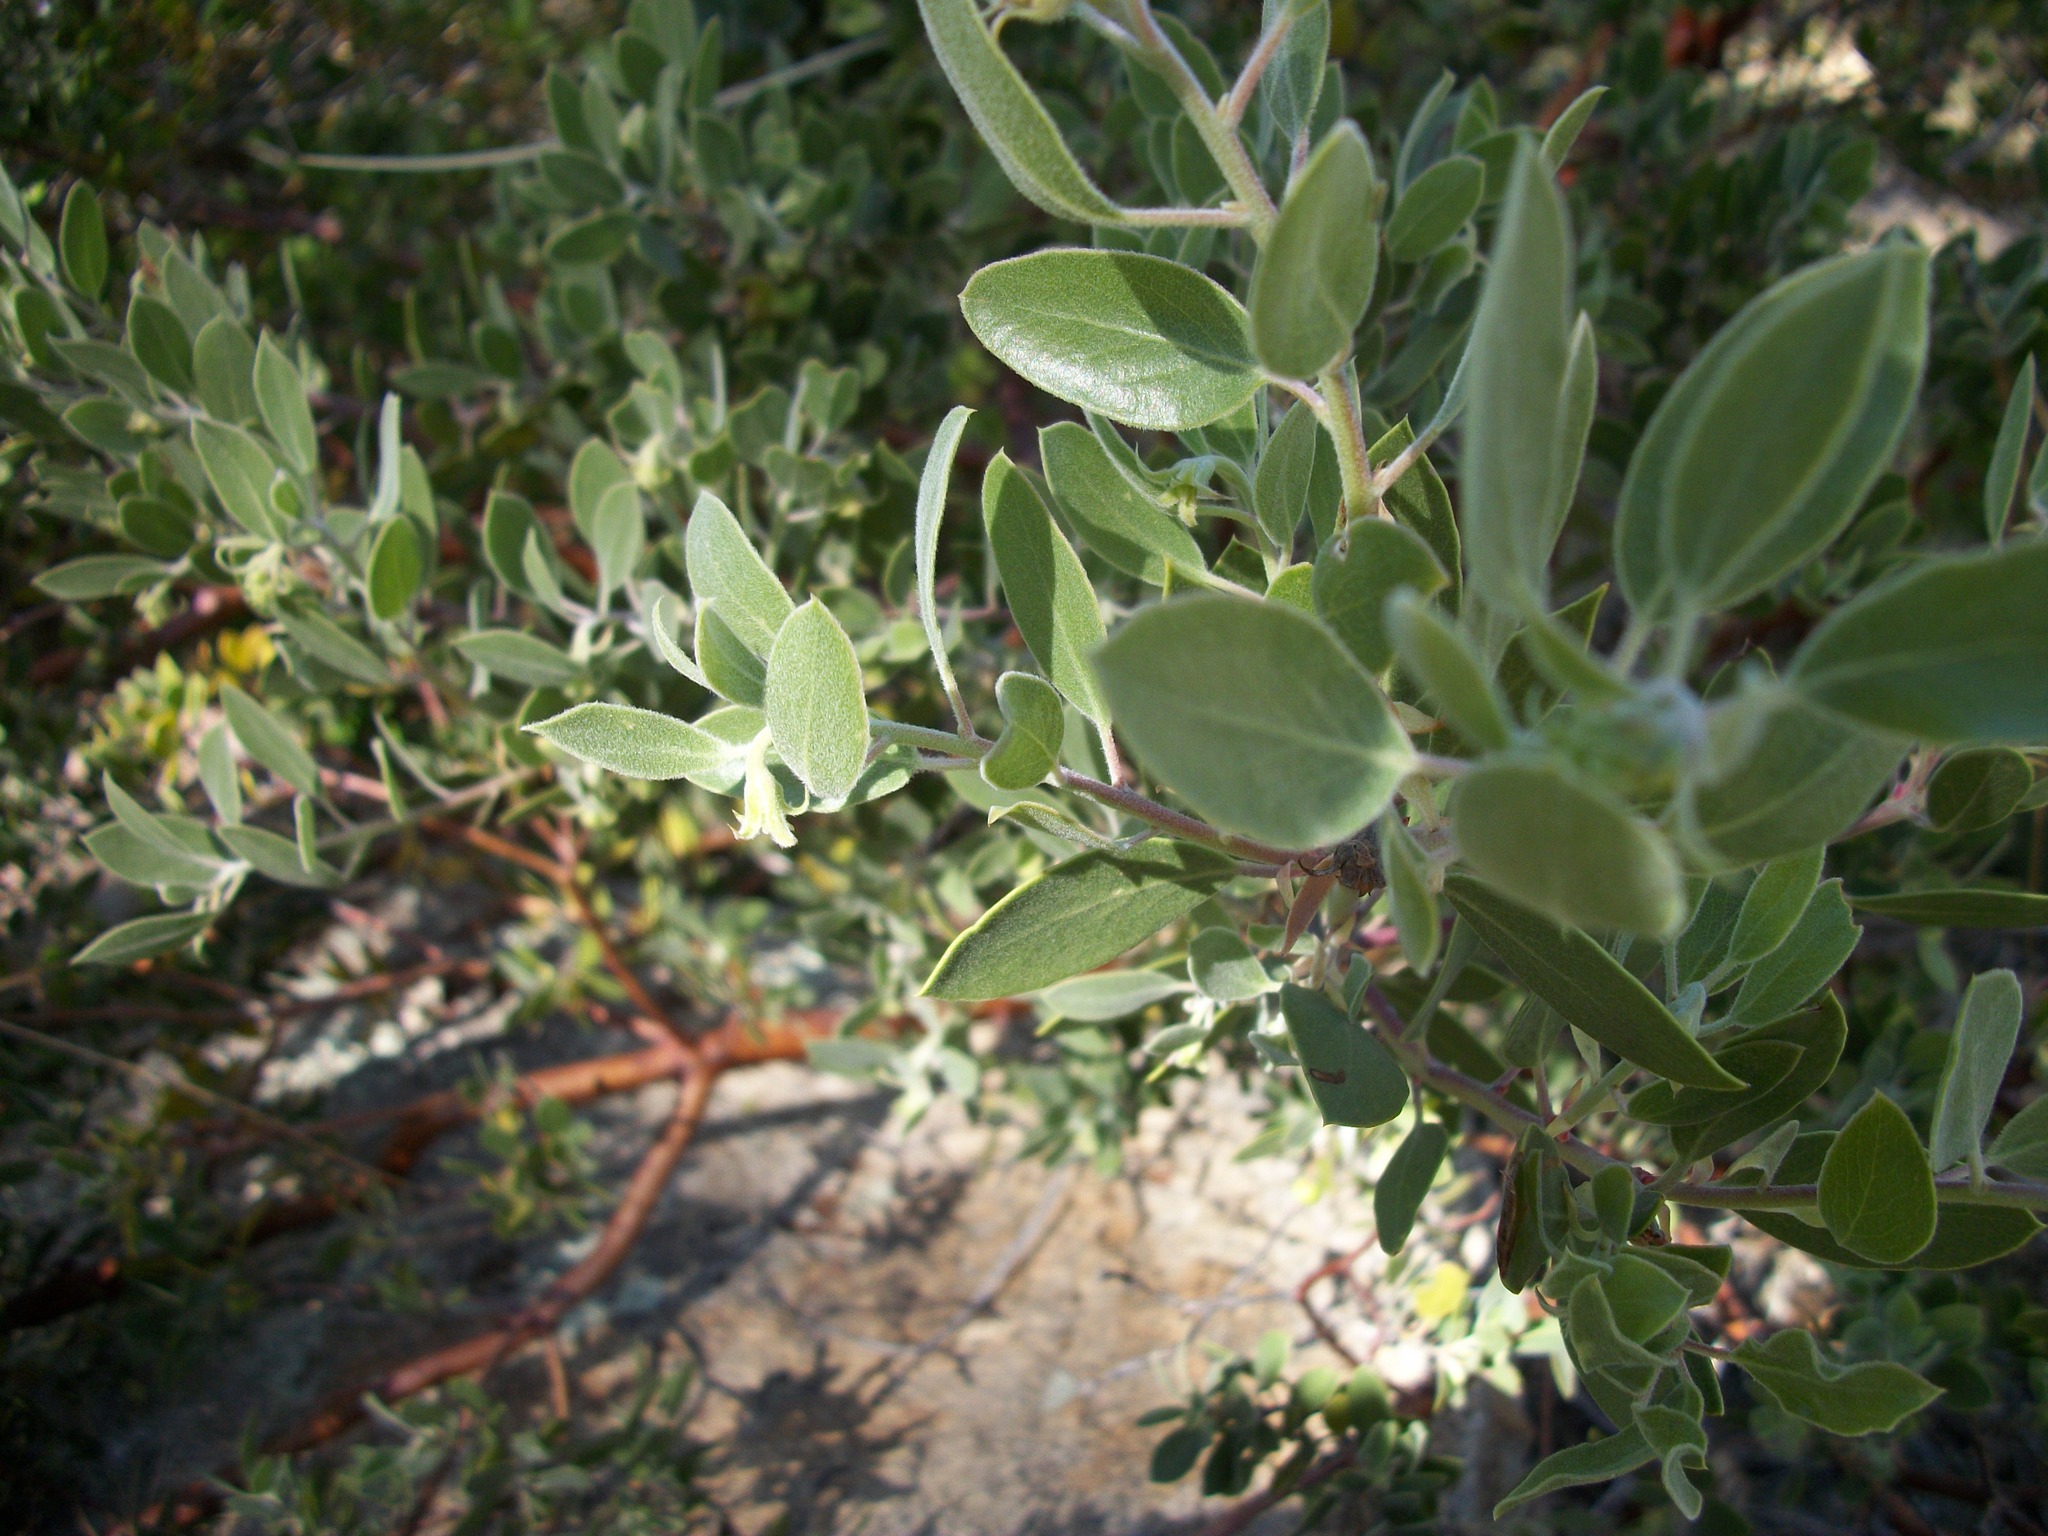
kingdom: Plantae
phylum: Tracheophyta
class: Magnoliopsida
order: Ericales
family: Ericaceae
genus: Arctostaphylos
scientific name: Arctostaphylos pungens
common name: Mexican manzanita
